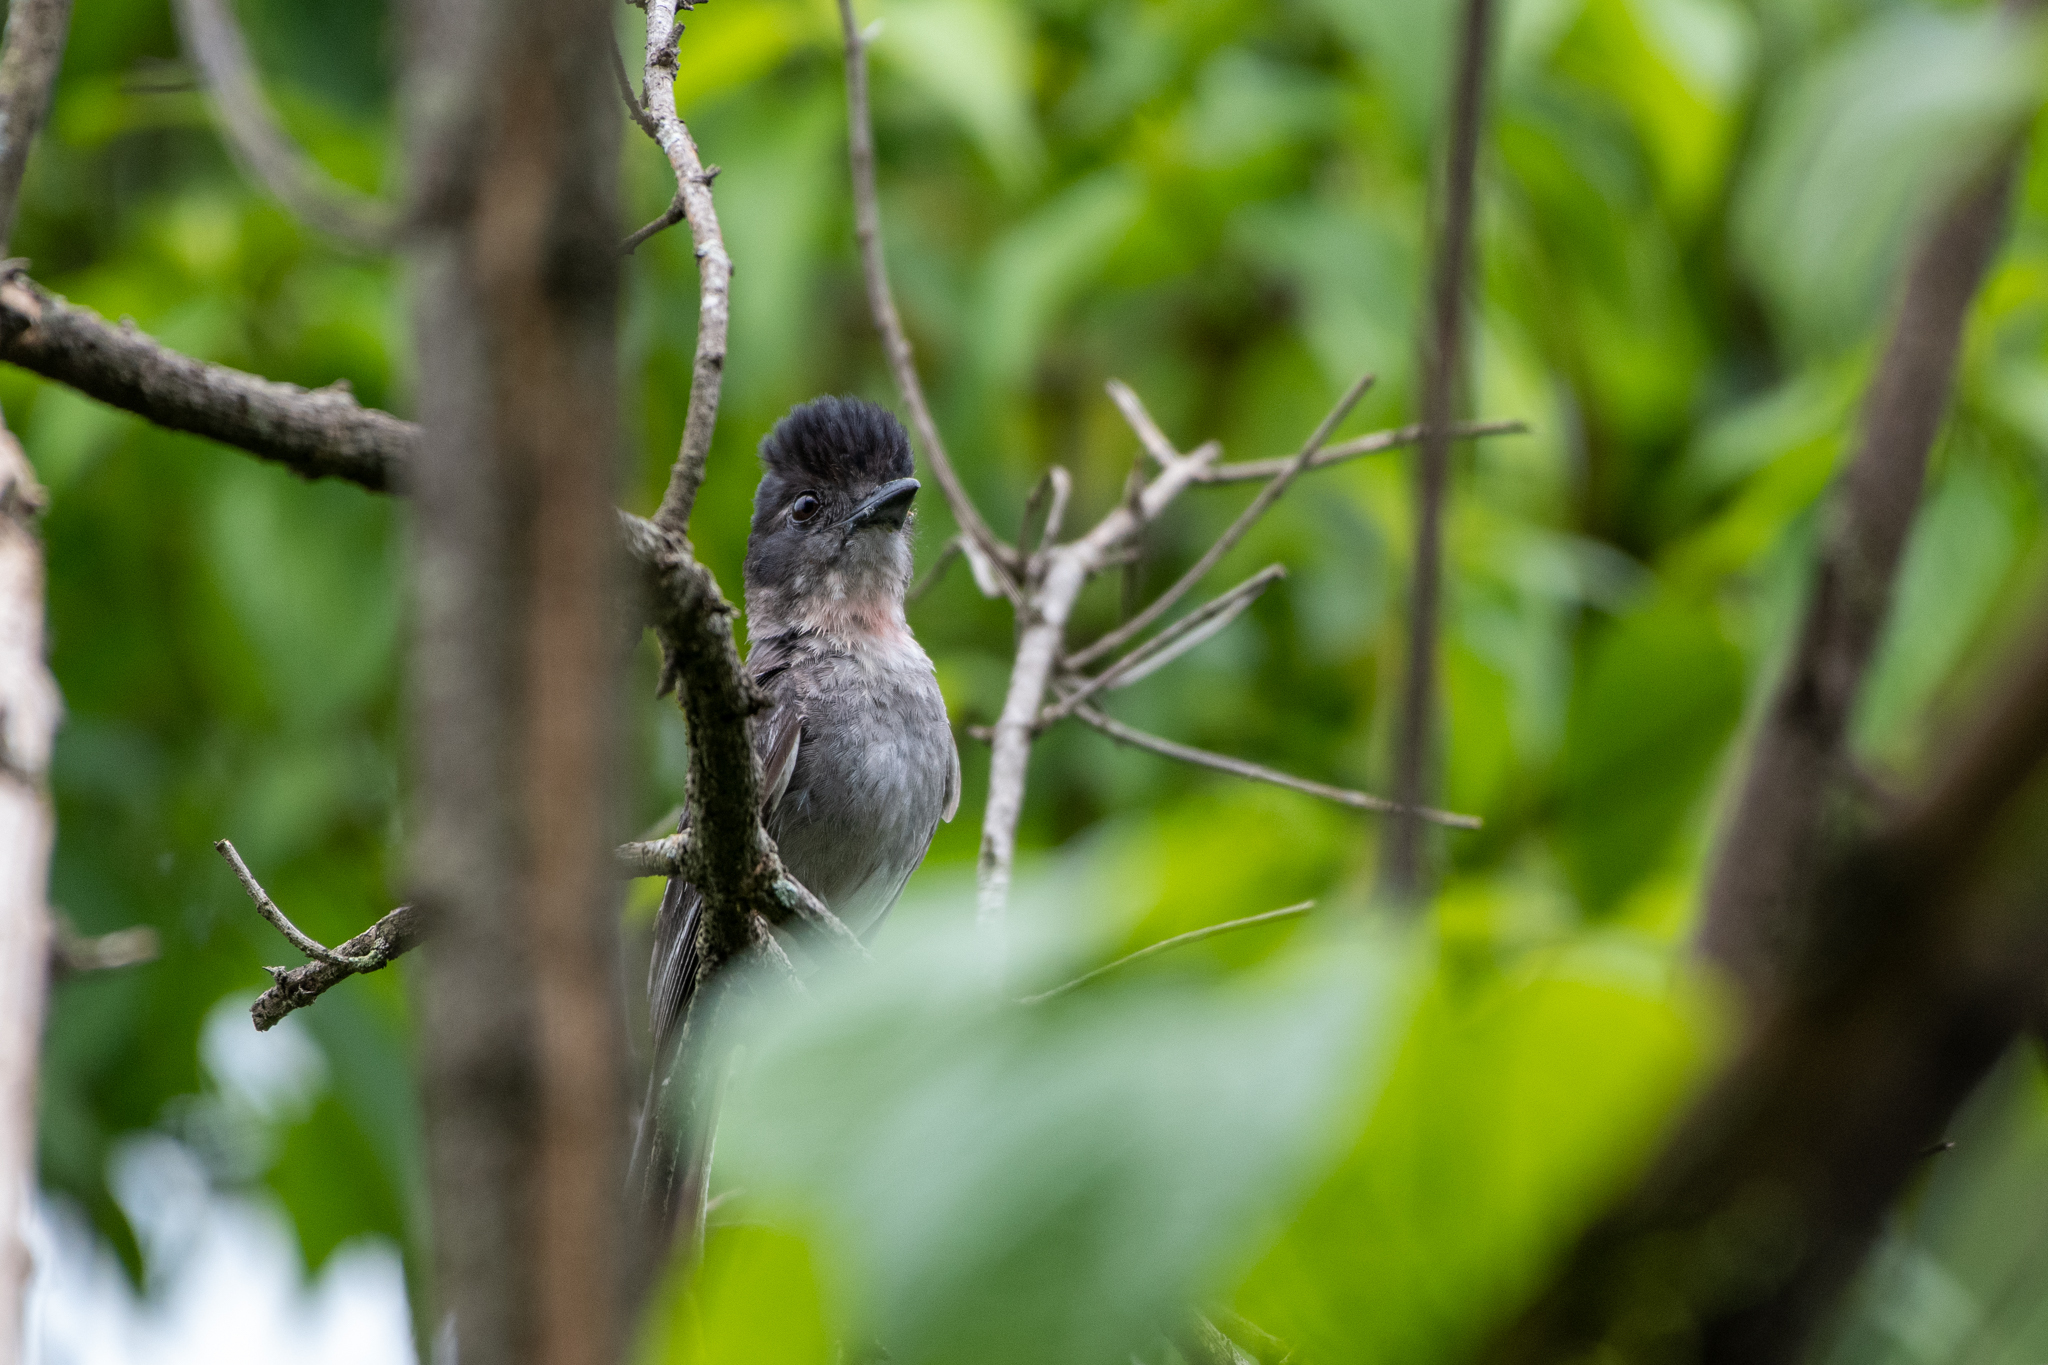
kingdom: Animalia
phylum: Chordata
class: Aves
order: Passeriformes
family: Cotingidae
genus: Pachyramphus
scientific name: Pachyramphus aglaiae
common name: Rose-throated becard
